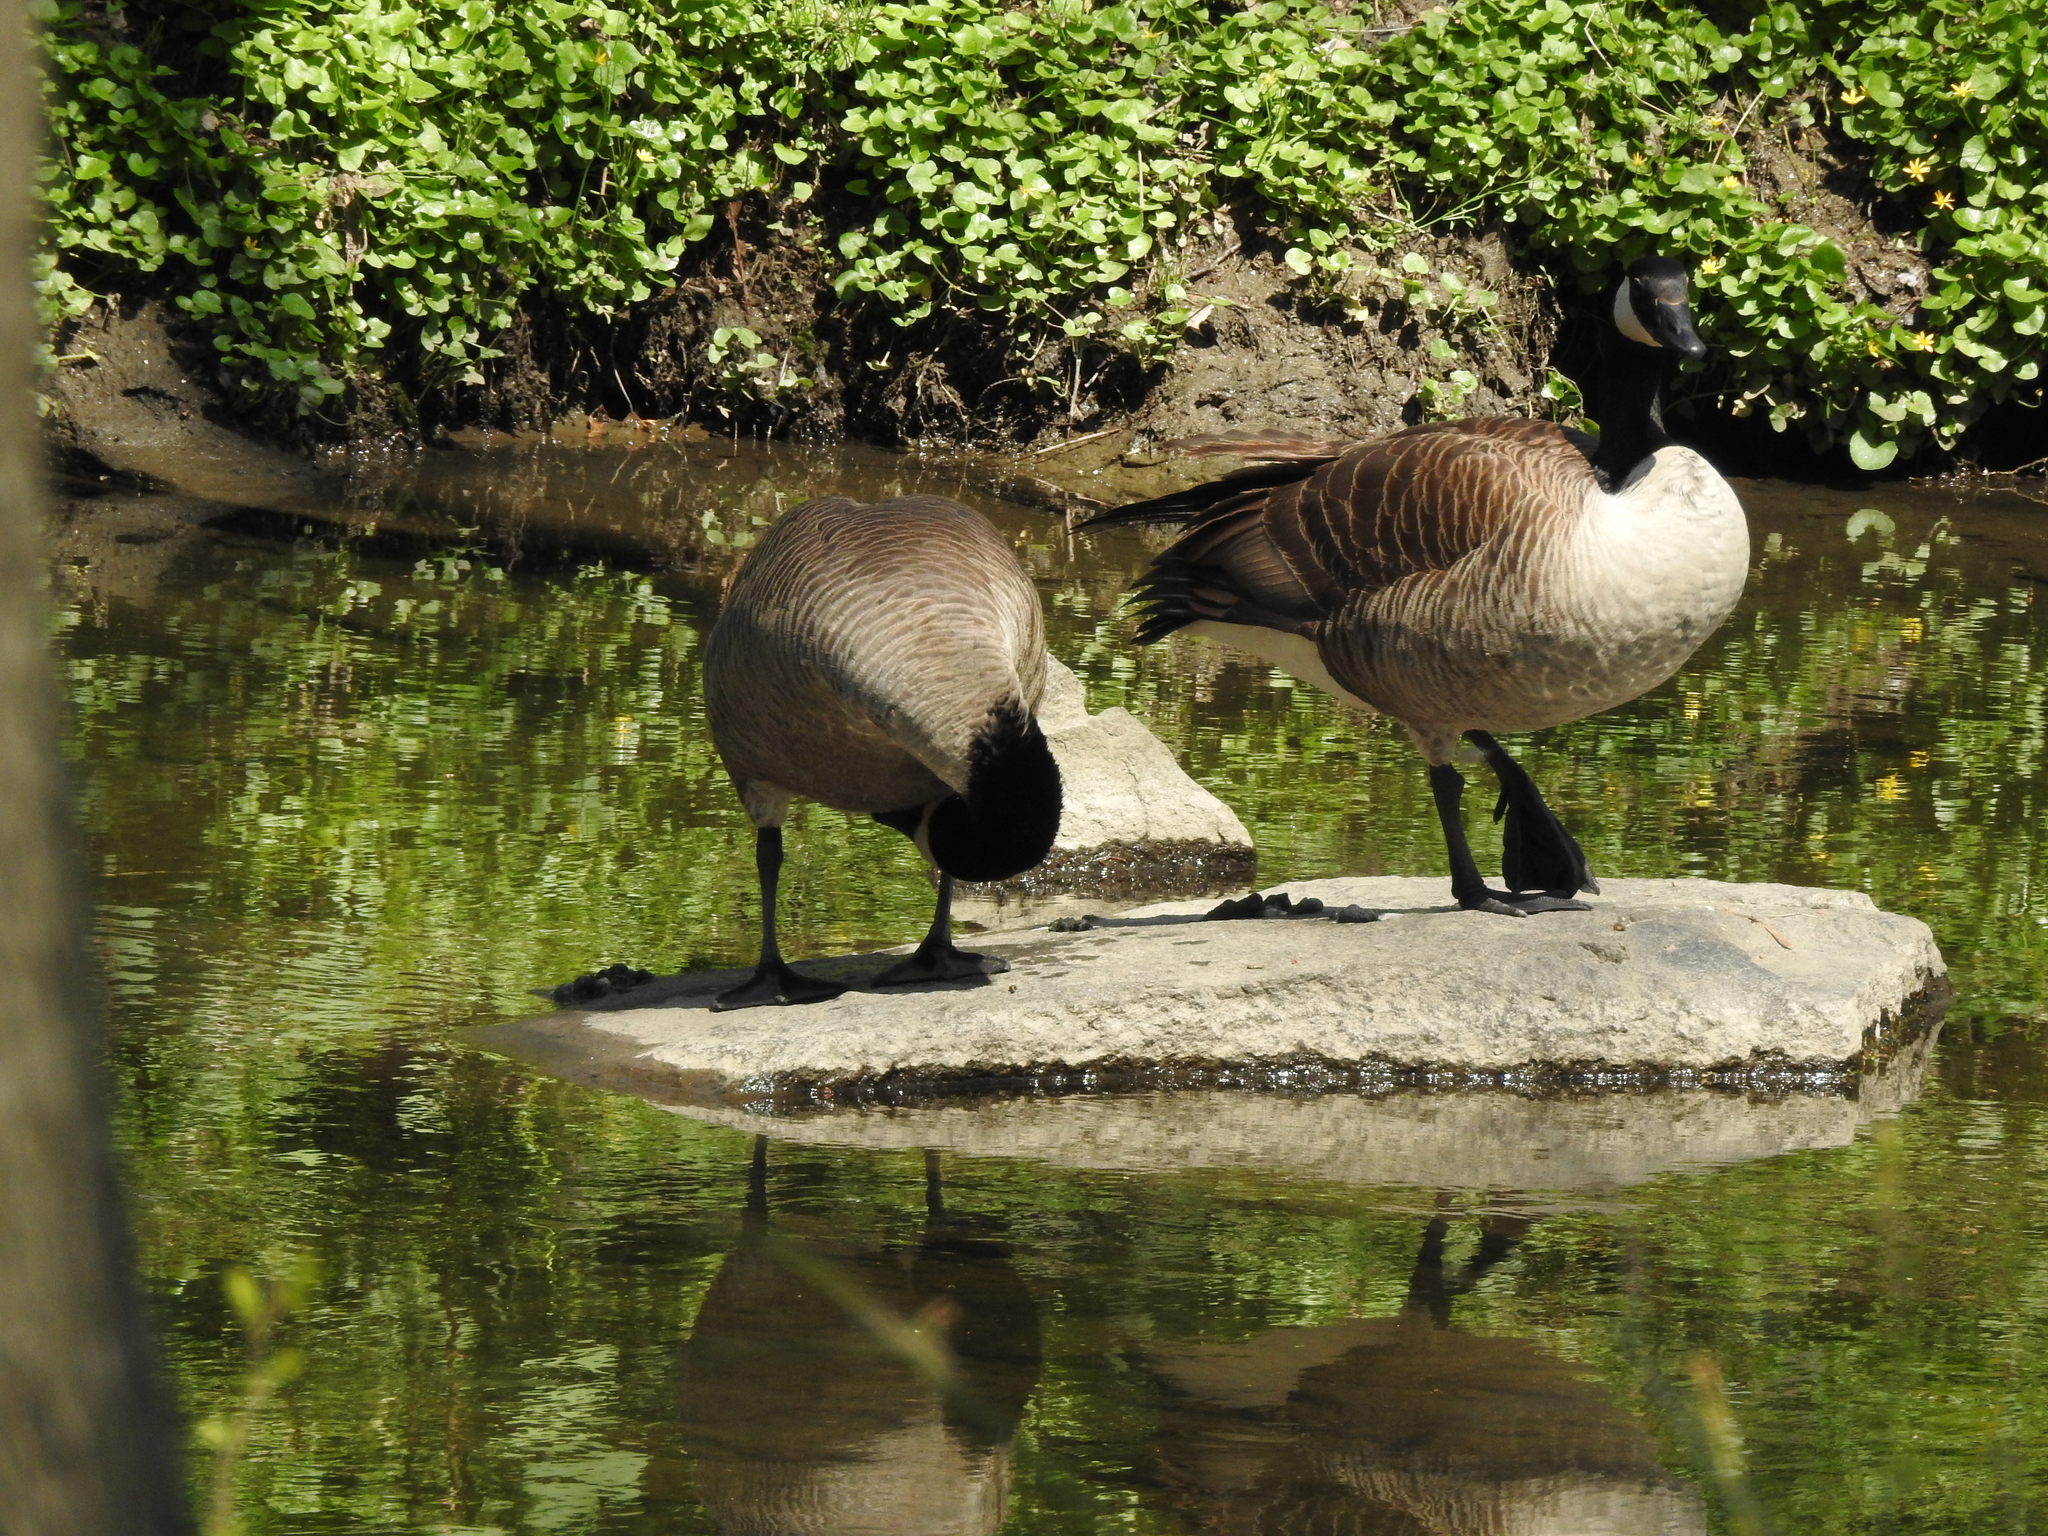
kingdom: Animalia
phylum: Chordata
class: Aves
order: Anseriformes
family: Anatidae
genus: Branta
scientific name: Branta canadensis
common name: Canada goose
